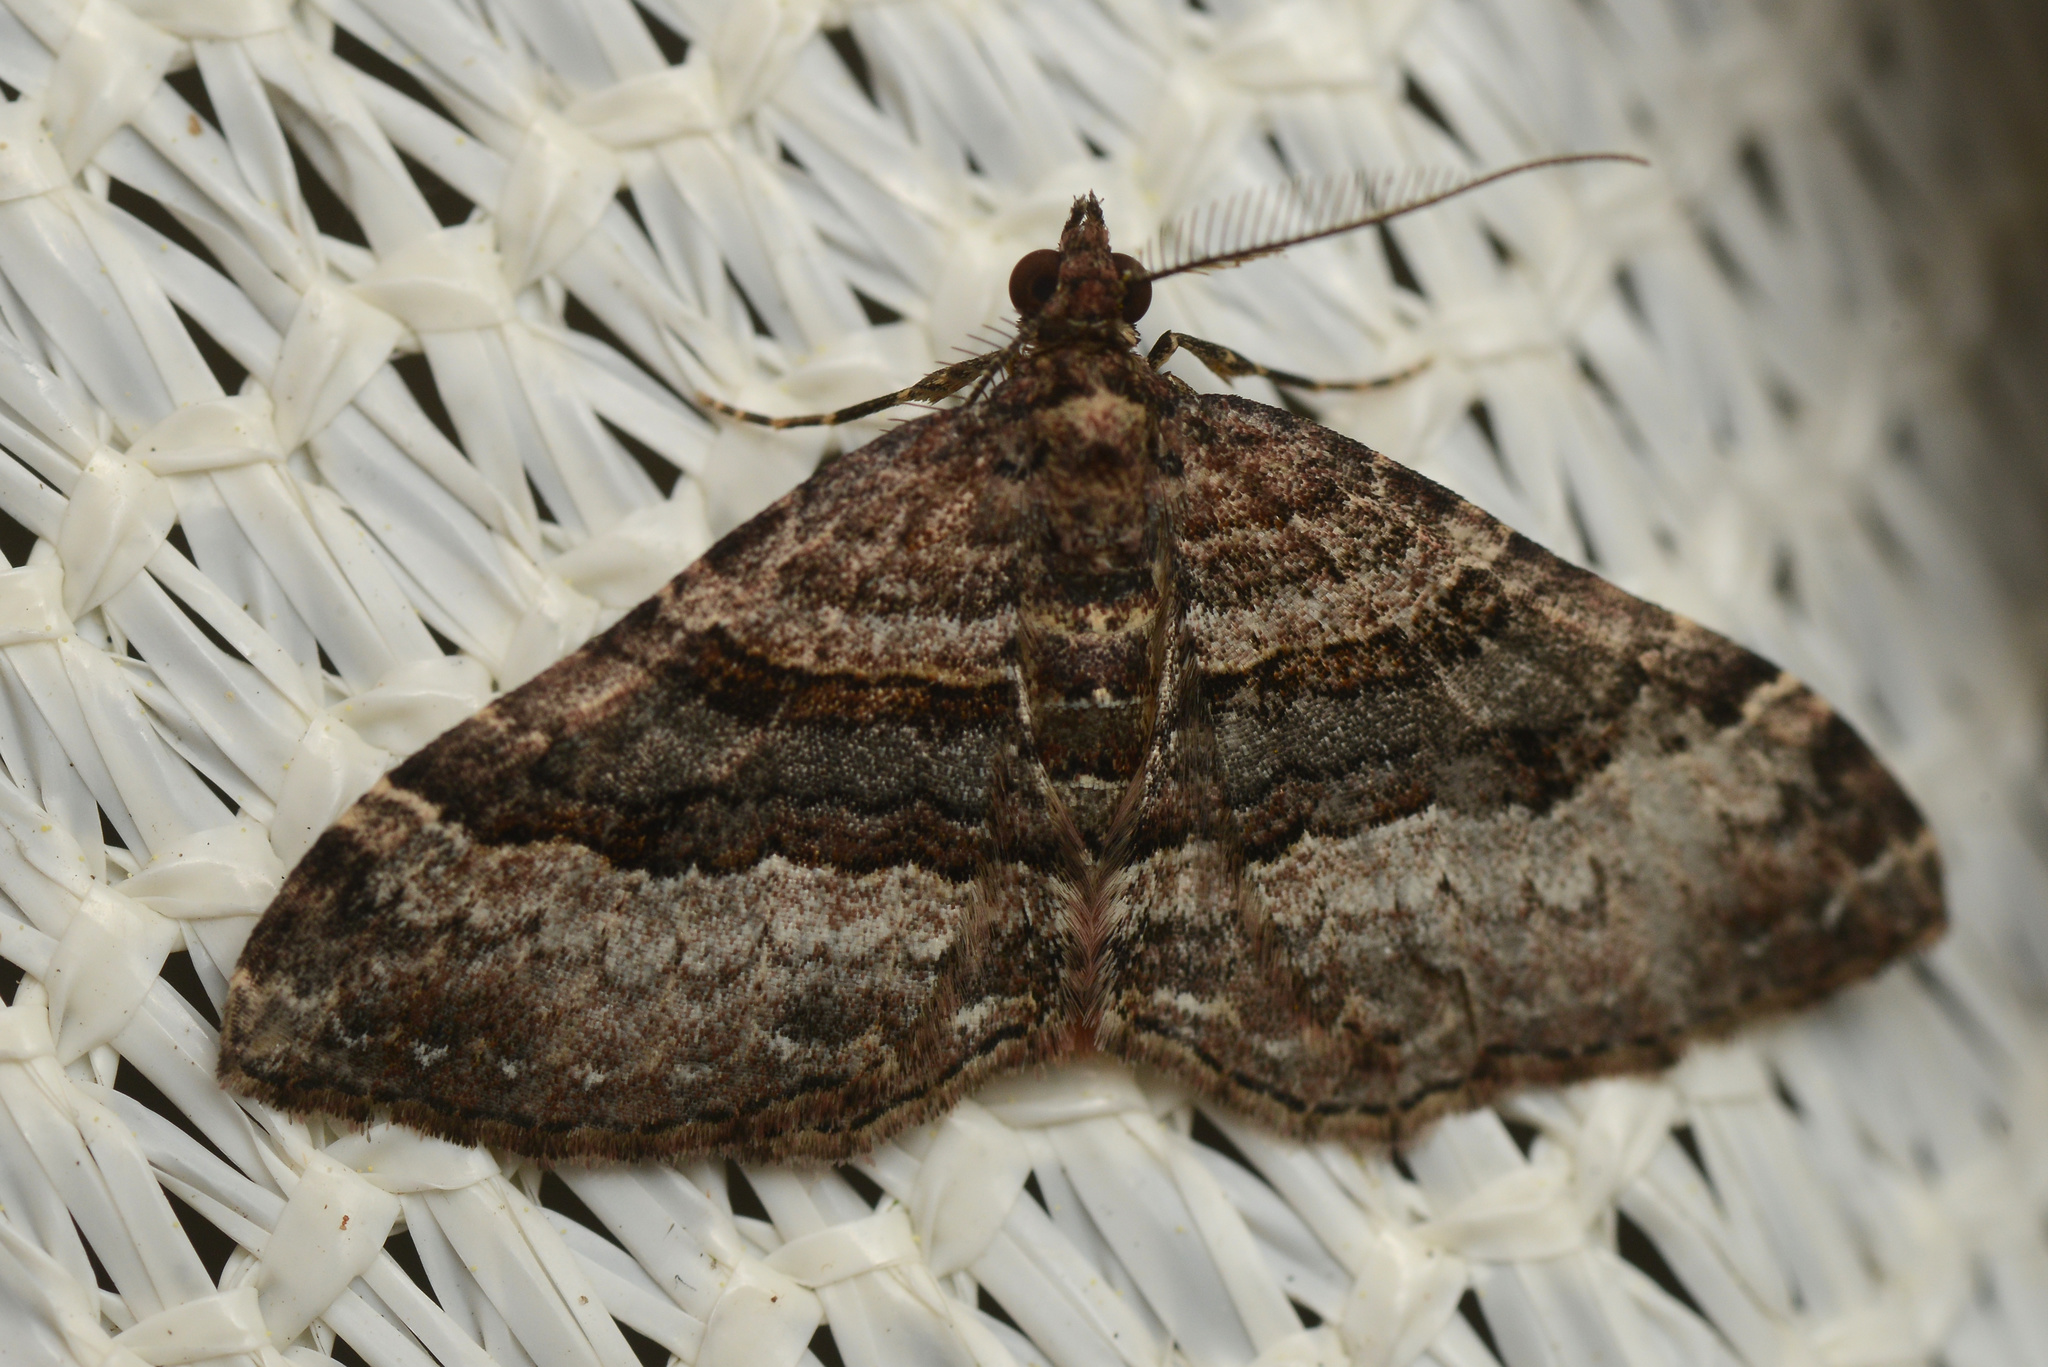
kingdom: Animalia
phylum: Arthropoda
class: Insecta
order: Lepidoptera
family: Geometridae
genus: Epyaxa
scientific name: Epyaxa lucidata
